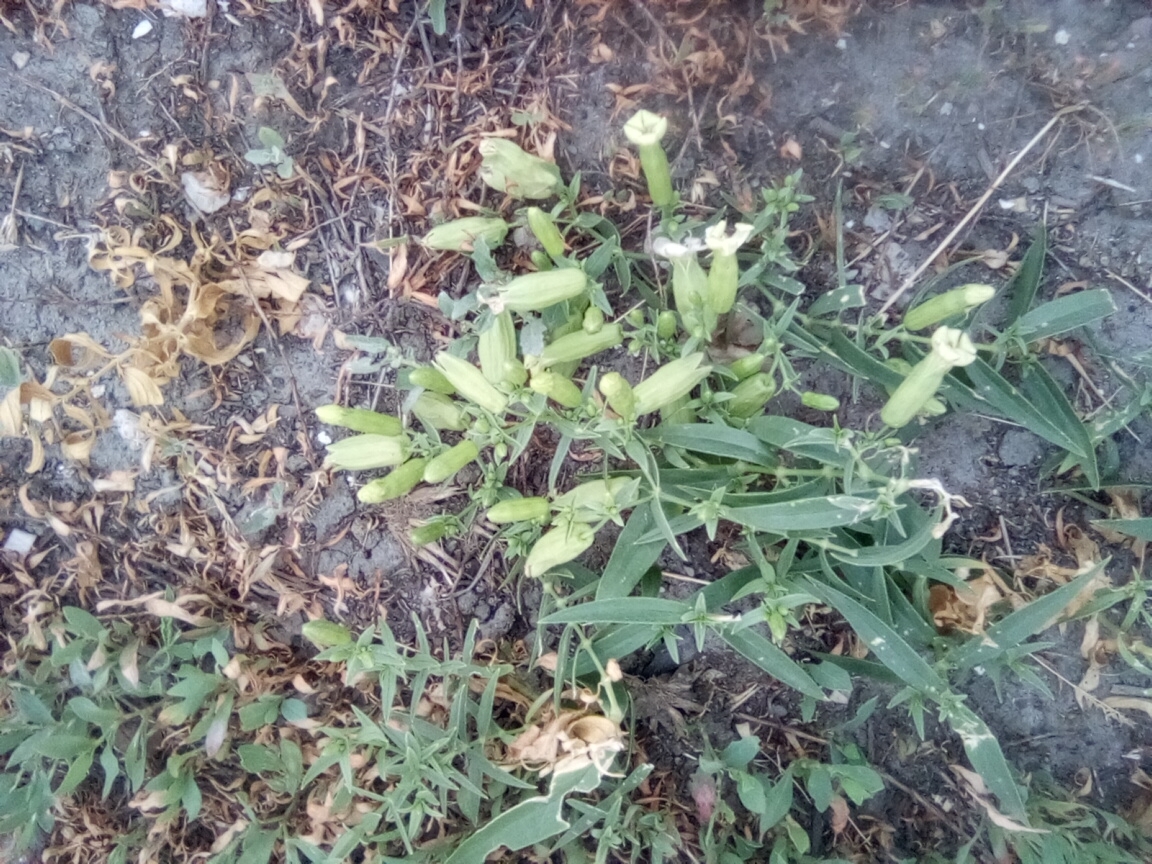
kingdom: Plantae
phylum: Tracheophyta
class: Magnoliopsida
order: Caryophyllales
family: Caryophyllaceae
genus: Silene
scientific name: Silene procumbens
